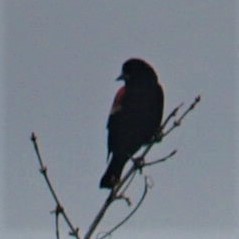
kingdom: Animalia
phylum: Chordata
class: Aves
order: Passeriformes
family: Icteridae
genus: Agelaius
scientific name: Agelaius phoeniceus
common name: Red-winged blackbird
